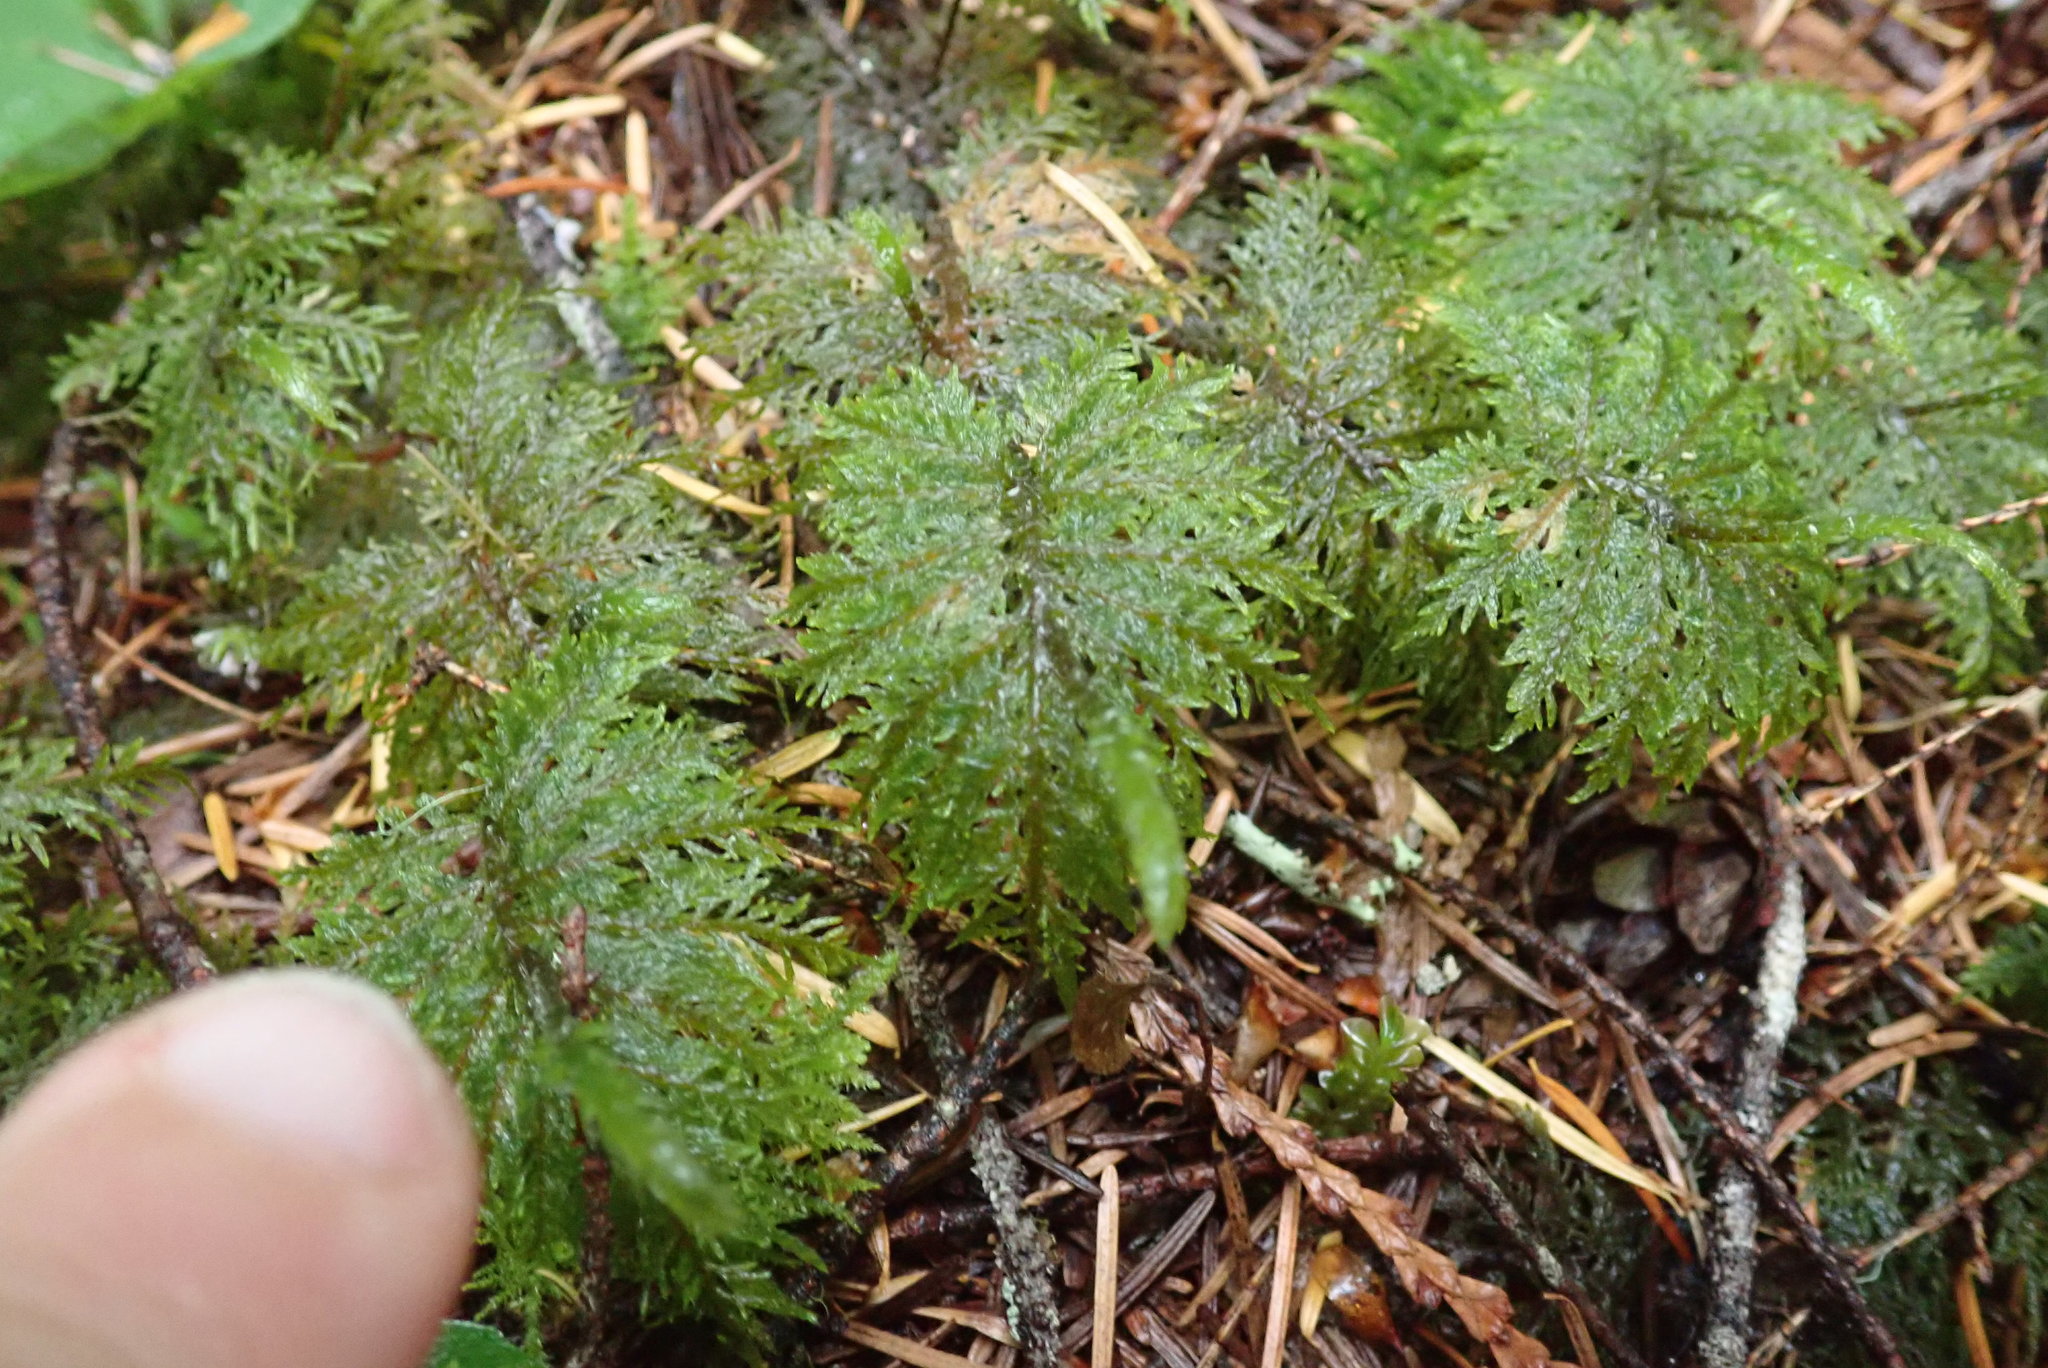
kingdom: Plantae
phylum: Bryophyta
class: Bryopsida
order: Hypnales
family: Hylocomiaceae
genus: Hylocomium
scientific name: Hylocomium splendens
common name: Stairstep moss
